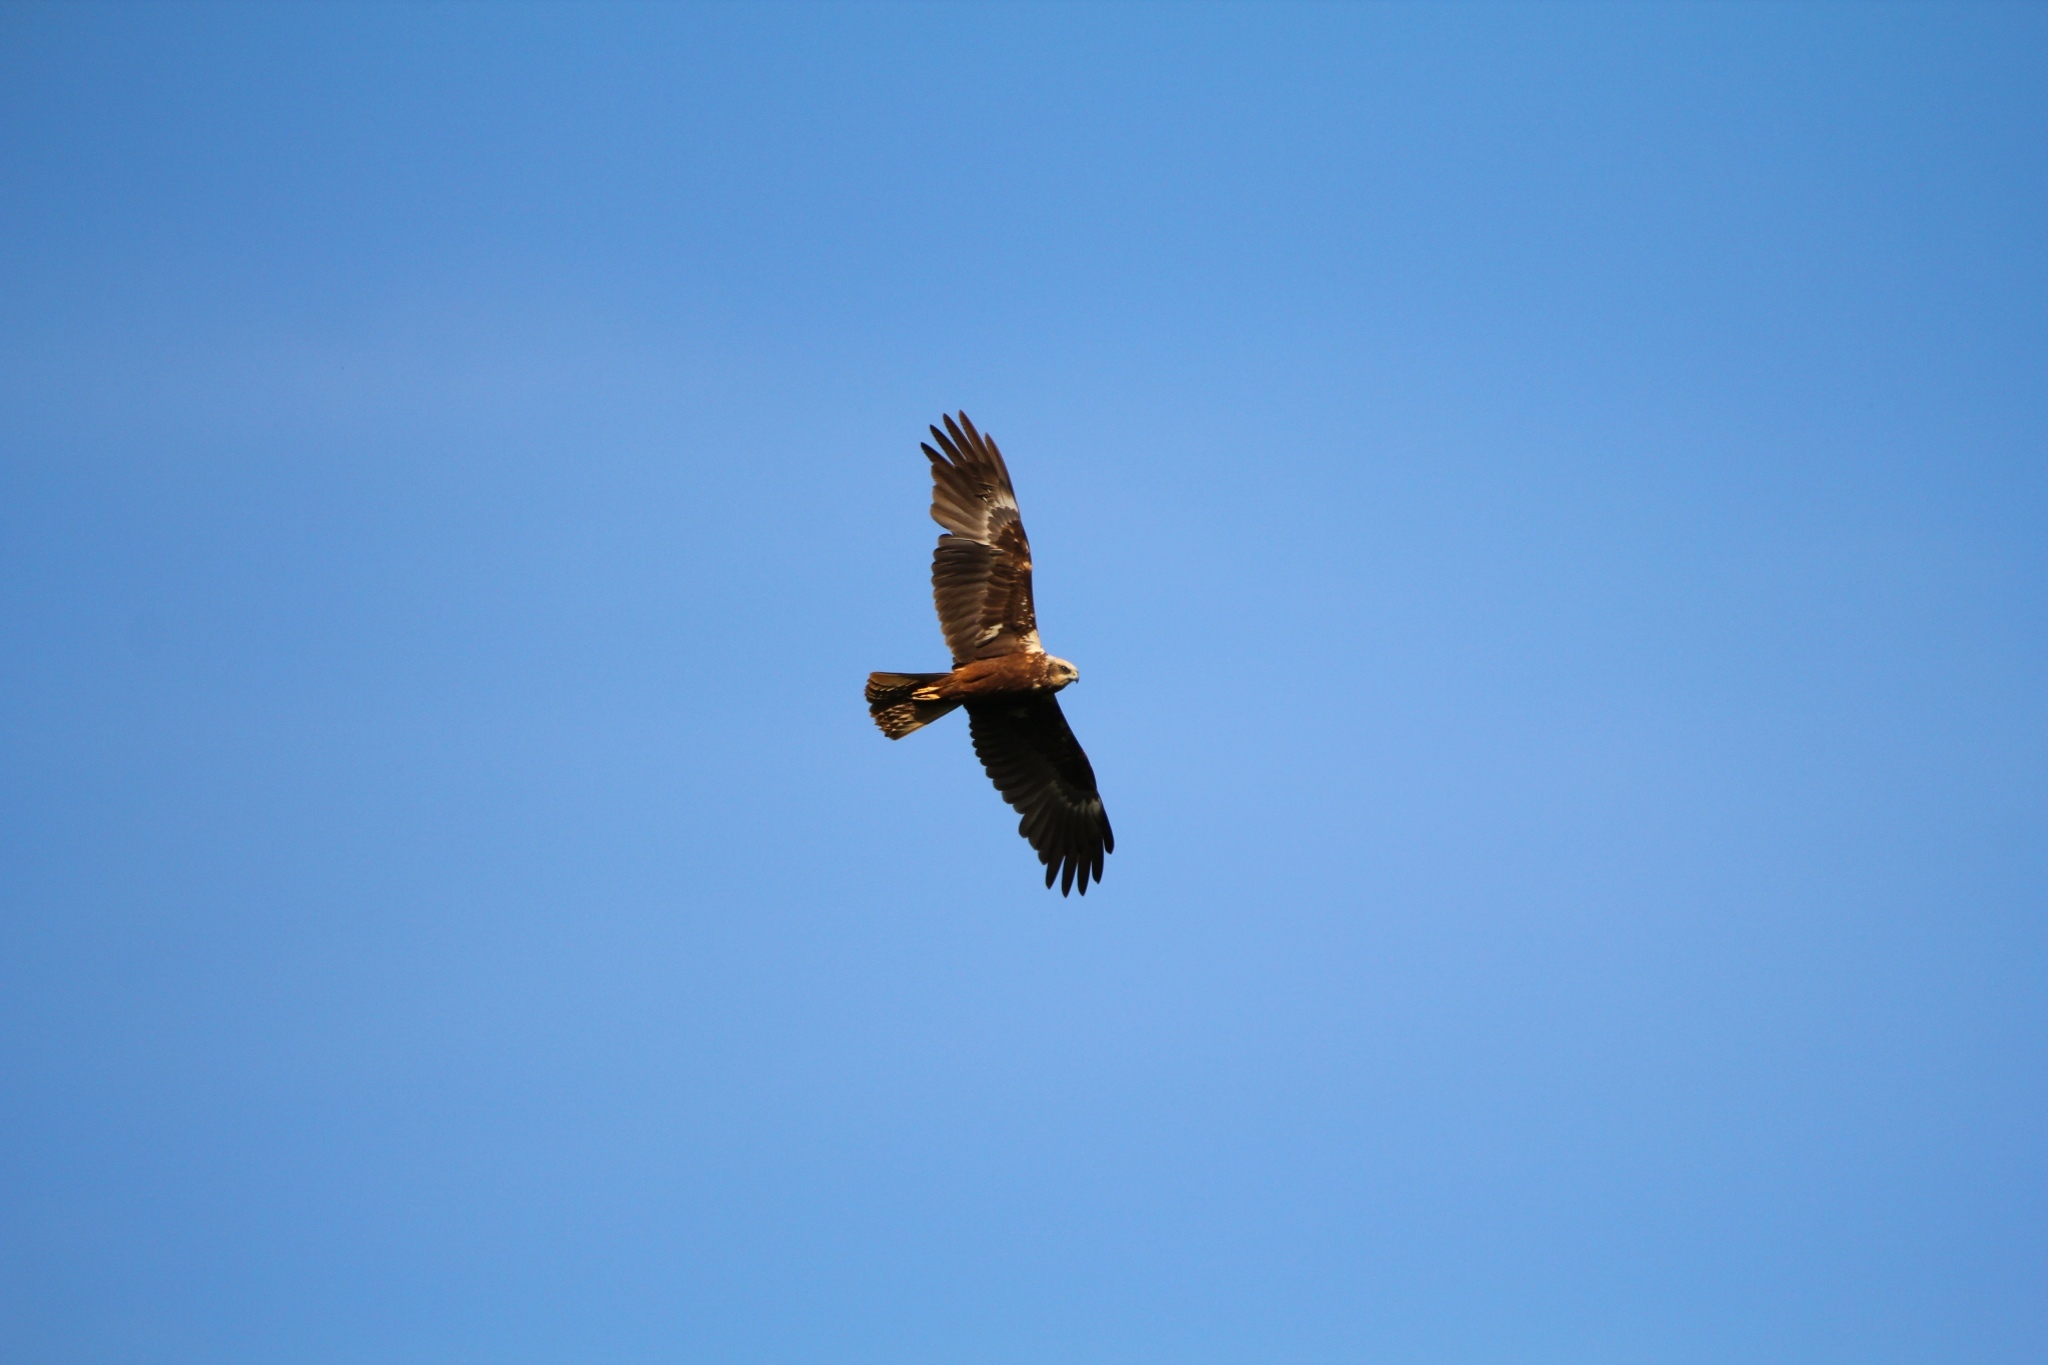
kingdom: Animalia
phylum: Chordata
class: Aves
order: Accipitriformes
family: Accipitridae
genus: Circus
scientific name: Circus aeruginosus
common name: Western marsh harrier
